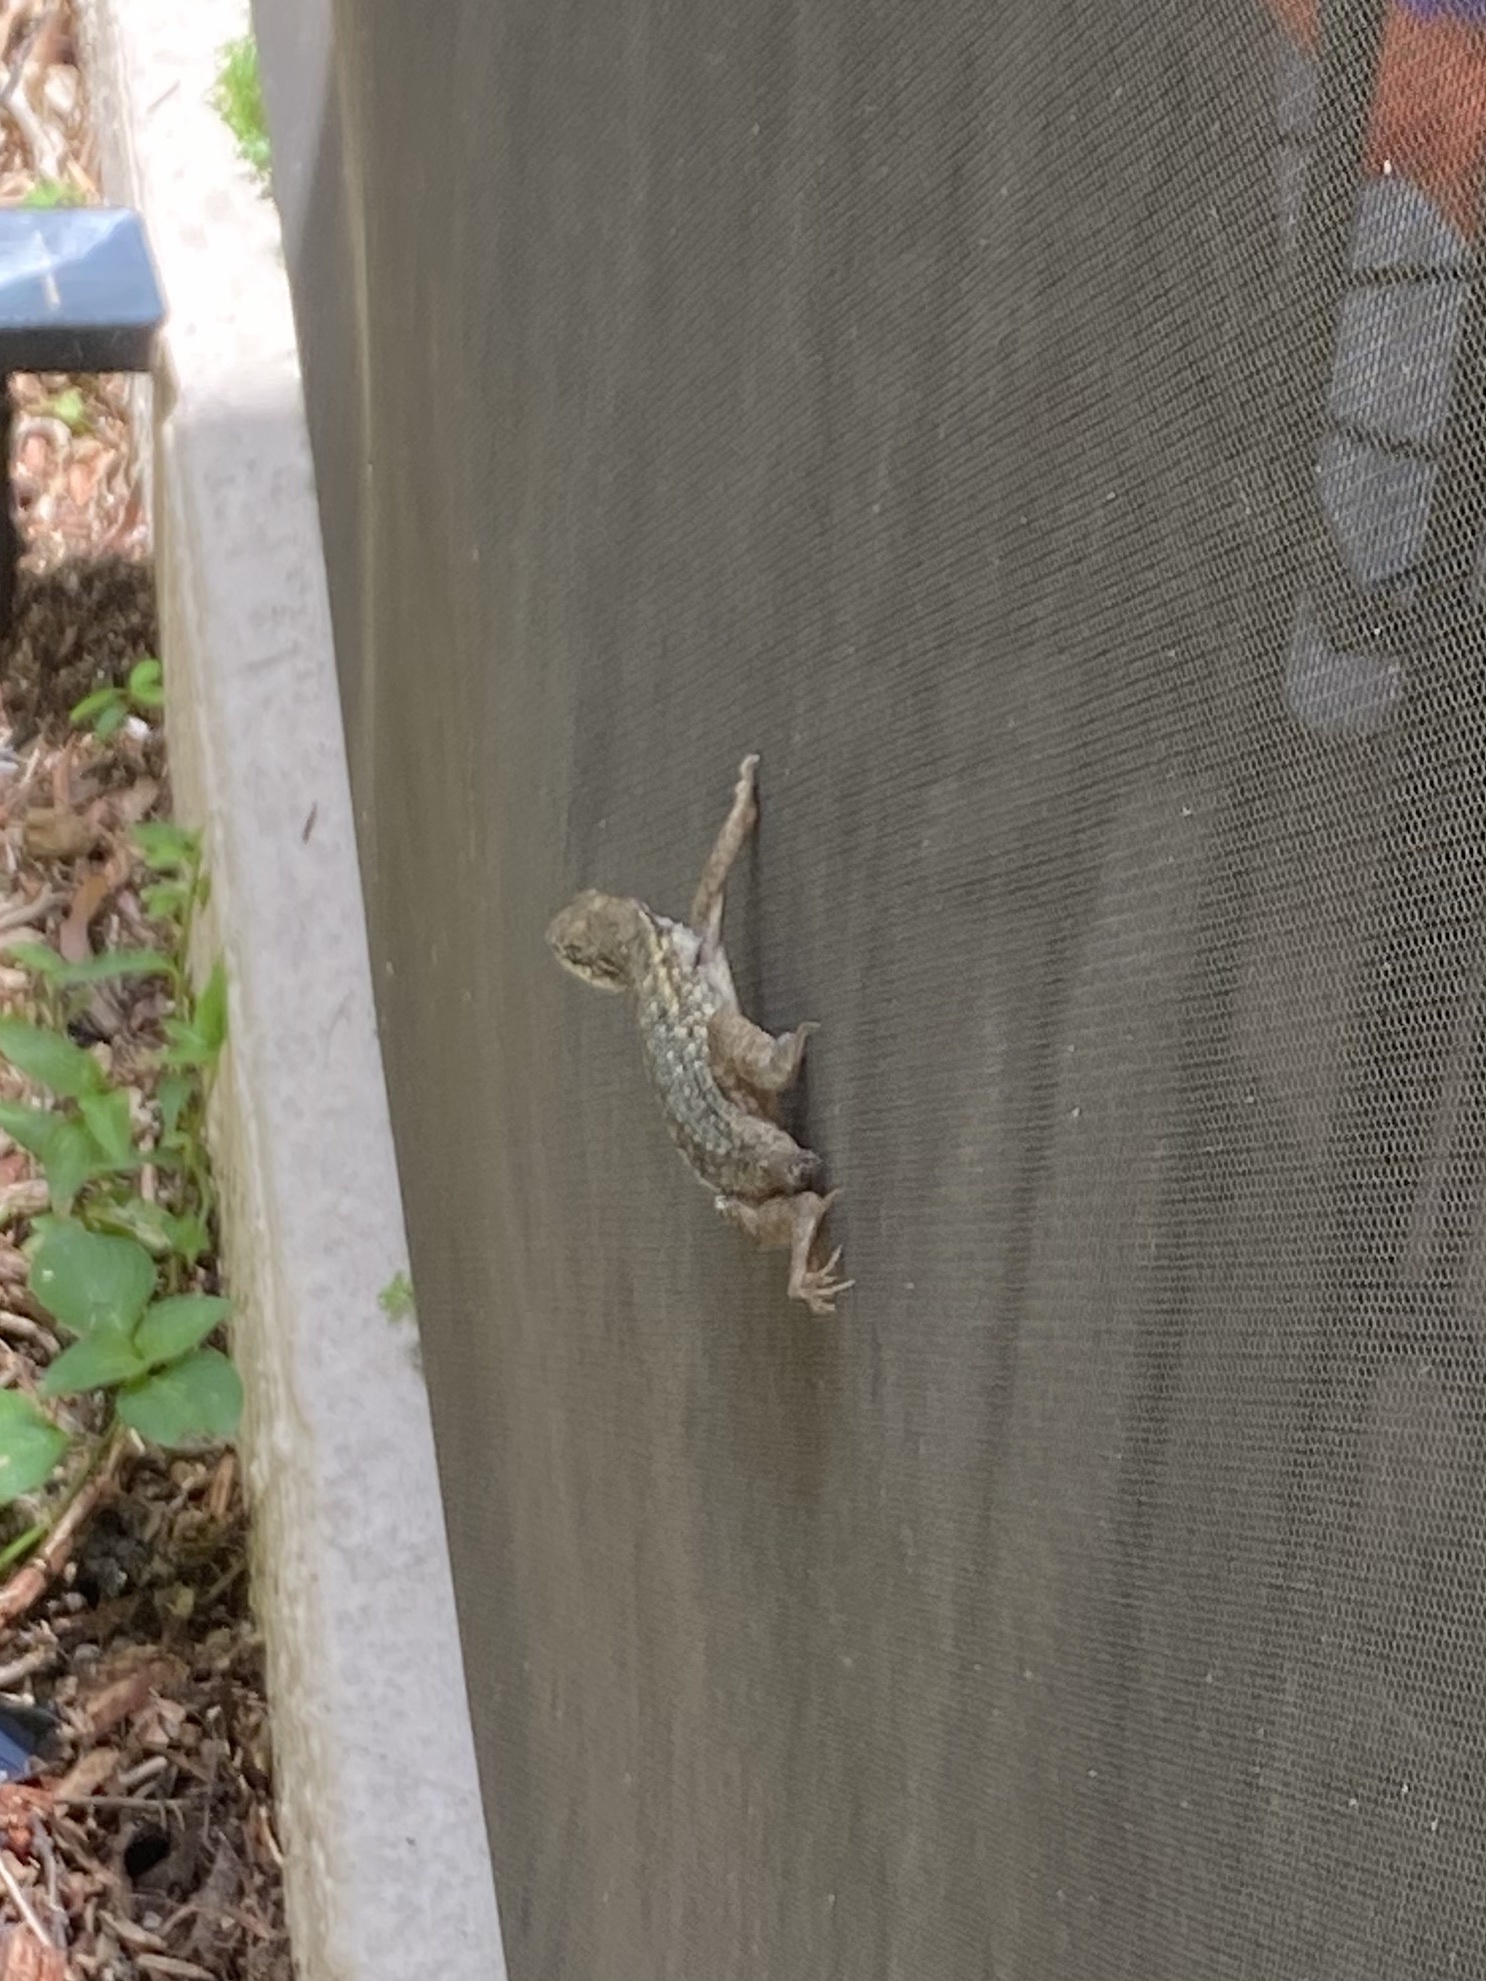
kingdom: Animalia
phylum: Chordata
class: Squamata
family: Leiocephalidae
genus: Leiocephalus
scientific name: Leiocephalus carinatus
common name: Northern curly-tailed lizard
